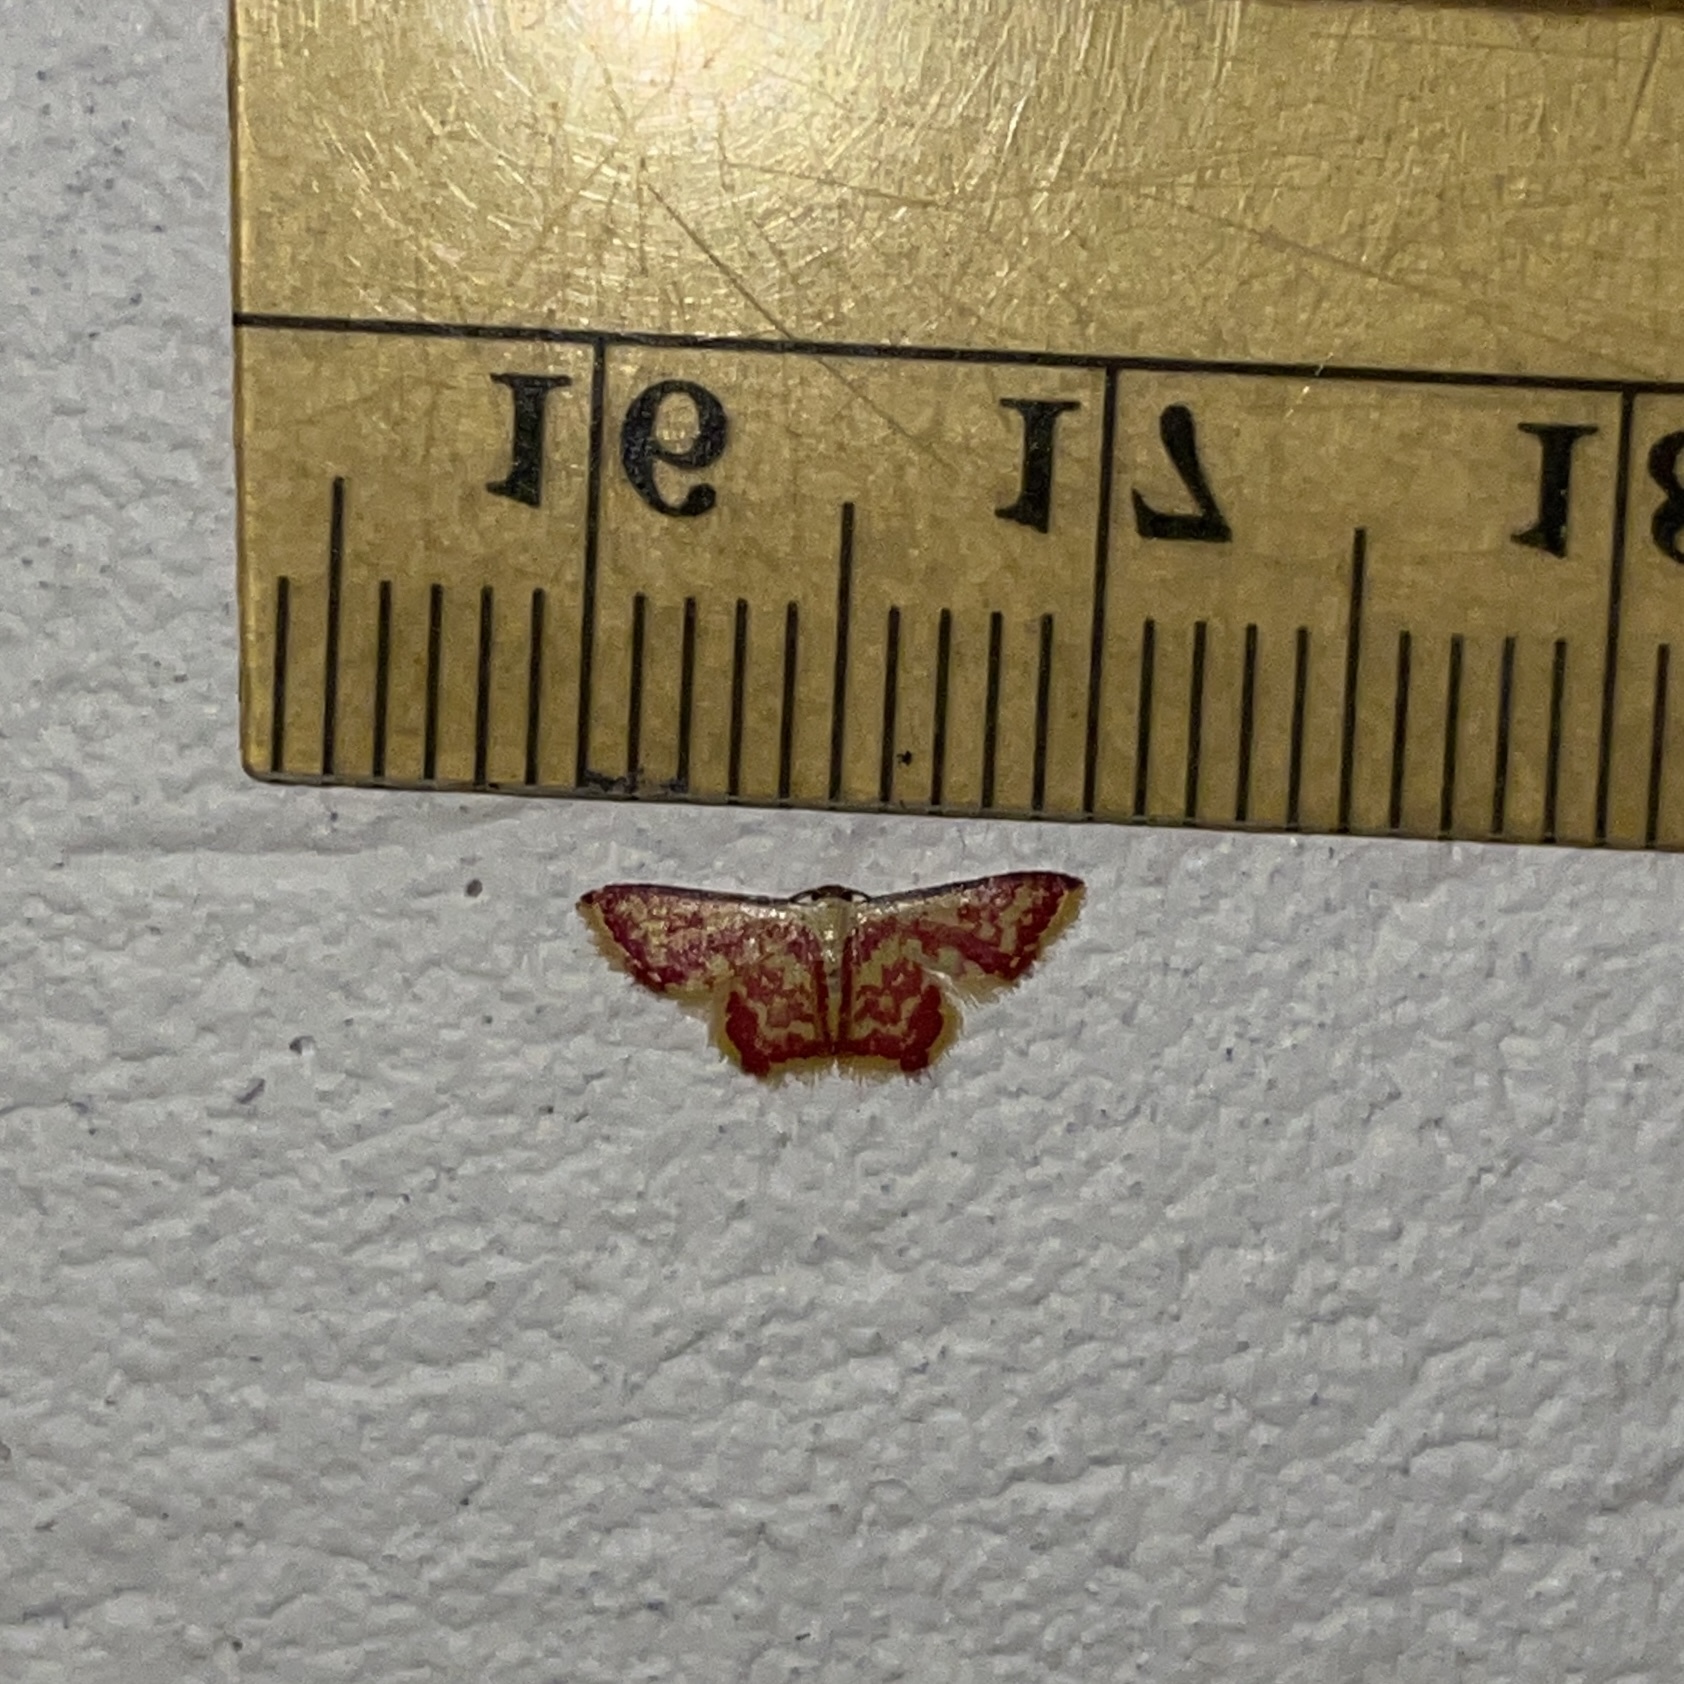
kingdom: Animalia
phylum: Arthropoda
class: Insecta
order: Lepidoptera
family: Geometridae
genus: Tricentrogyna
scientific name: Tricentrogyna colligata
